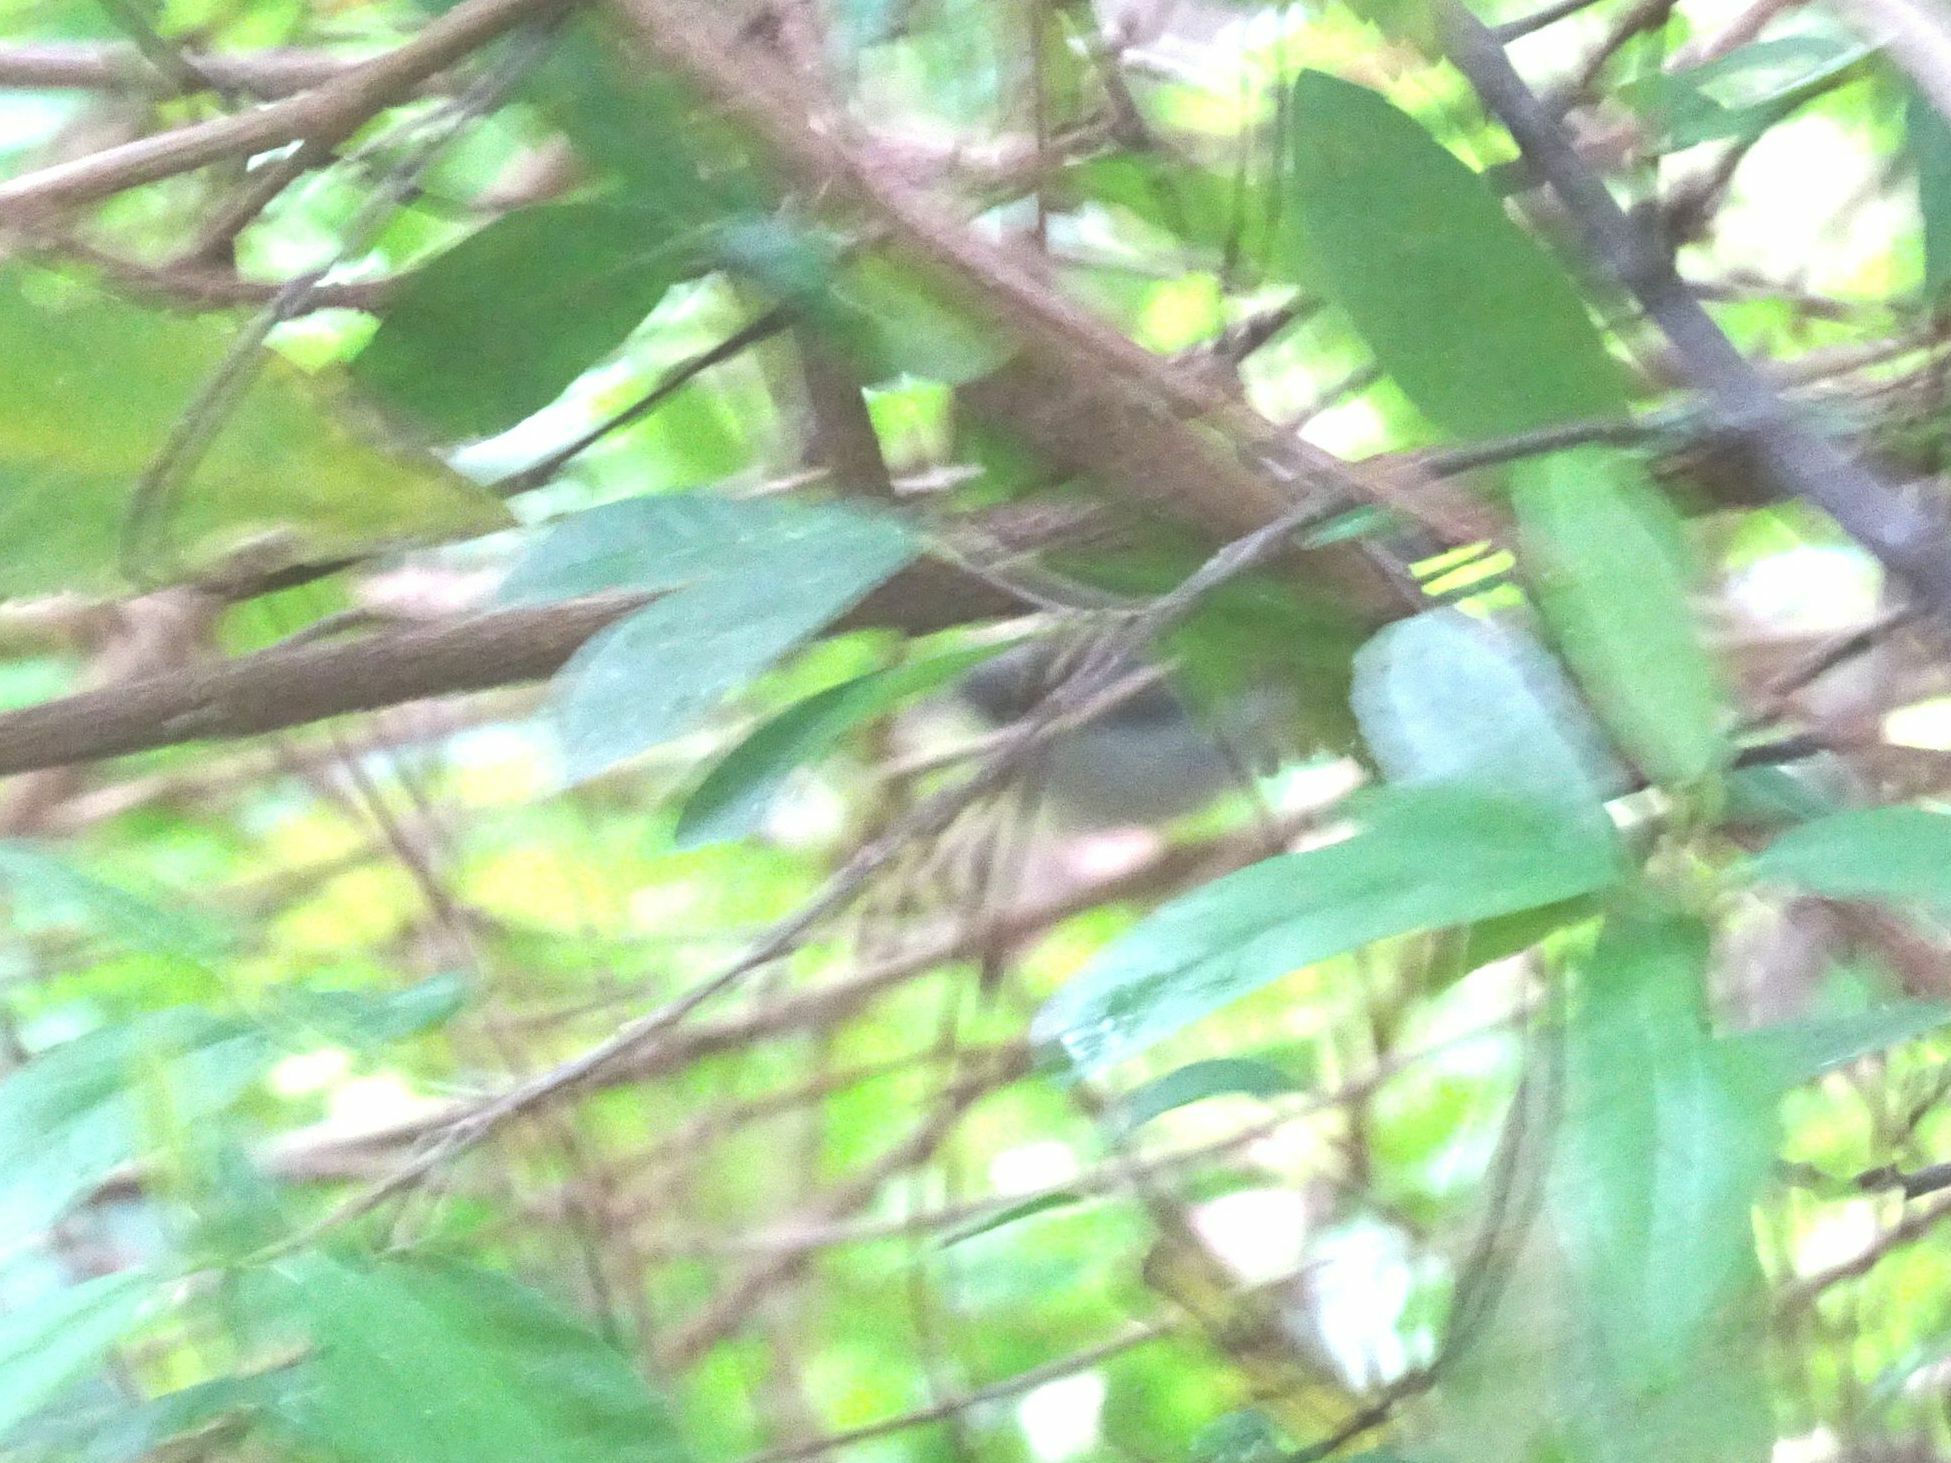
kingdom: Animalia
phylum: Chordata
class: Aves
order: Passeriformes
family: Cisticolidae
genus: Apalis
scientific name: Apalis thoracica
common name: Bar-throated apalis
